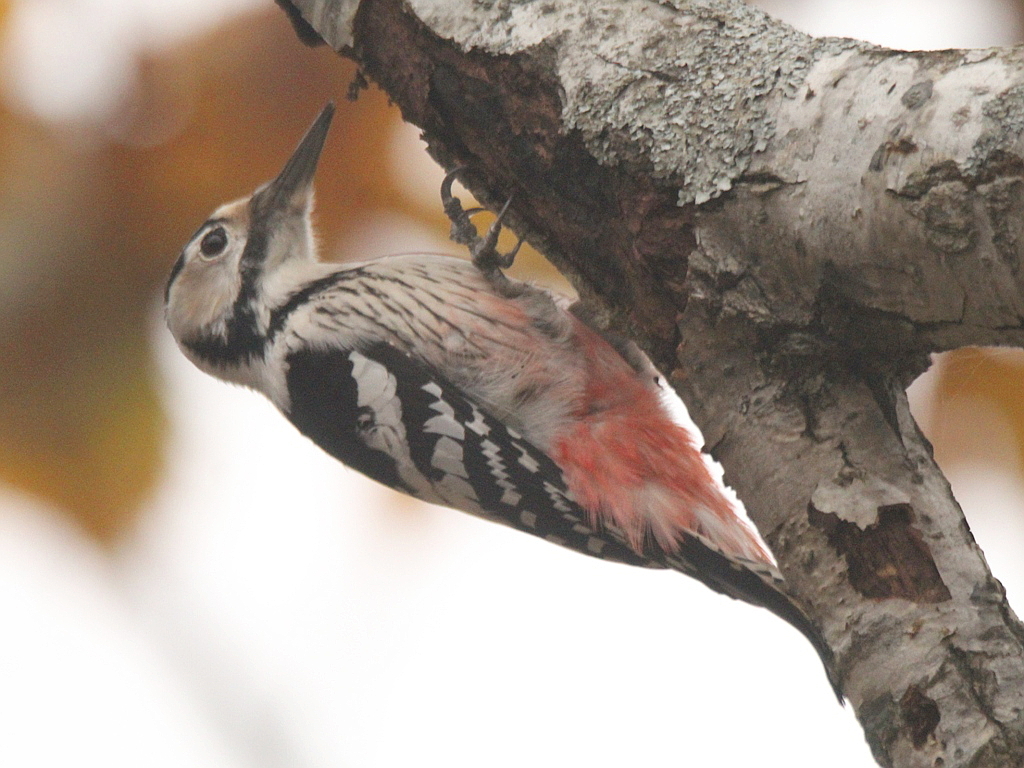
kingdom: Animalia
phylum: Chordata
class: Aves
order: Piciformes
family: Picidae
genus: Dendrocopos
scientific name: Dendrocopos leucotos
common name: White-backed woodpecker
